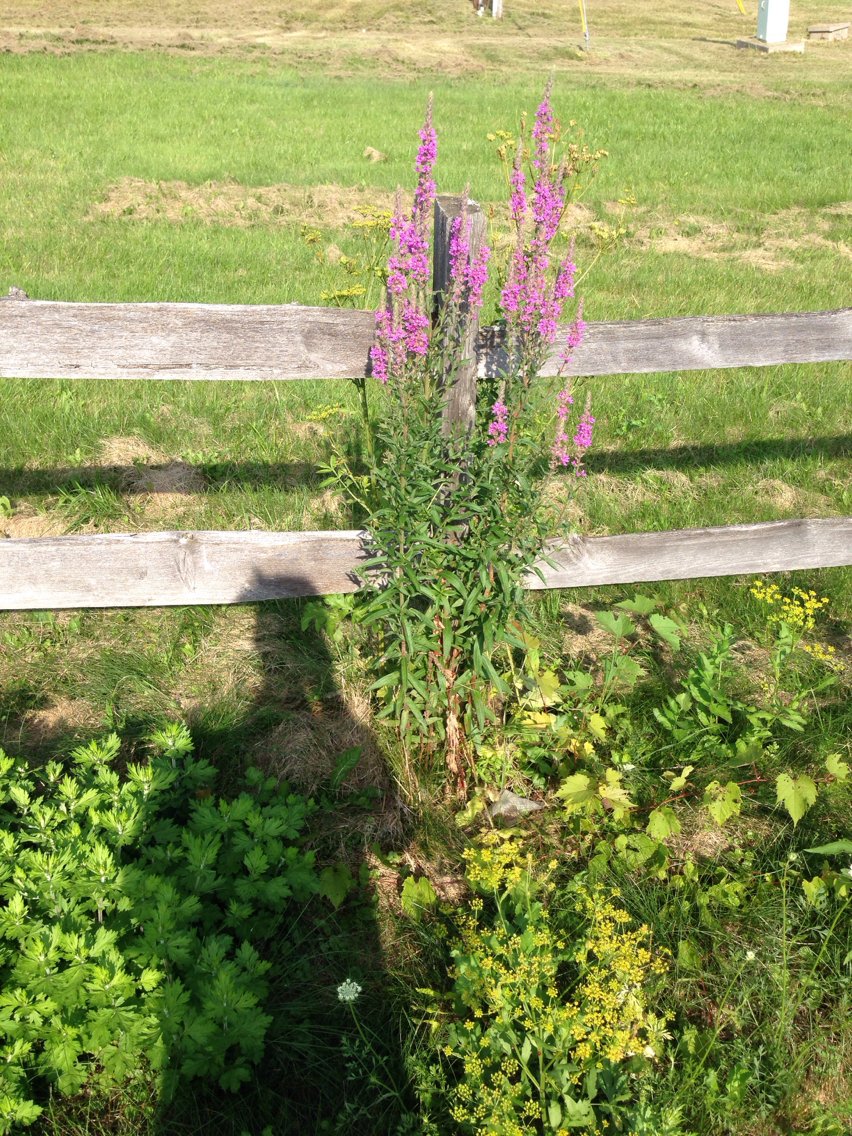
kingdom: Plantae
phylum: Tracheophyta
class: Magnoliopsida
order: Myrtales
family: Lythraceae
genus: Lythrum
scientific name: Lythrum salicaria
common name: Purple loosestrife
